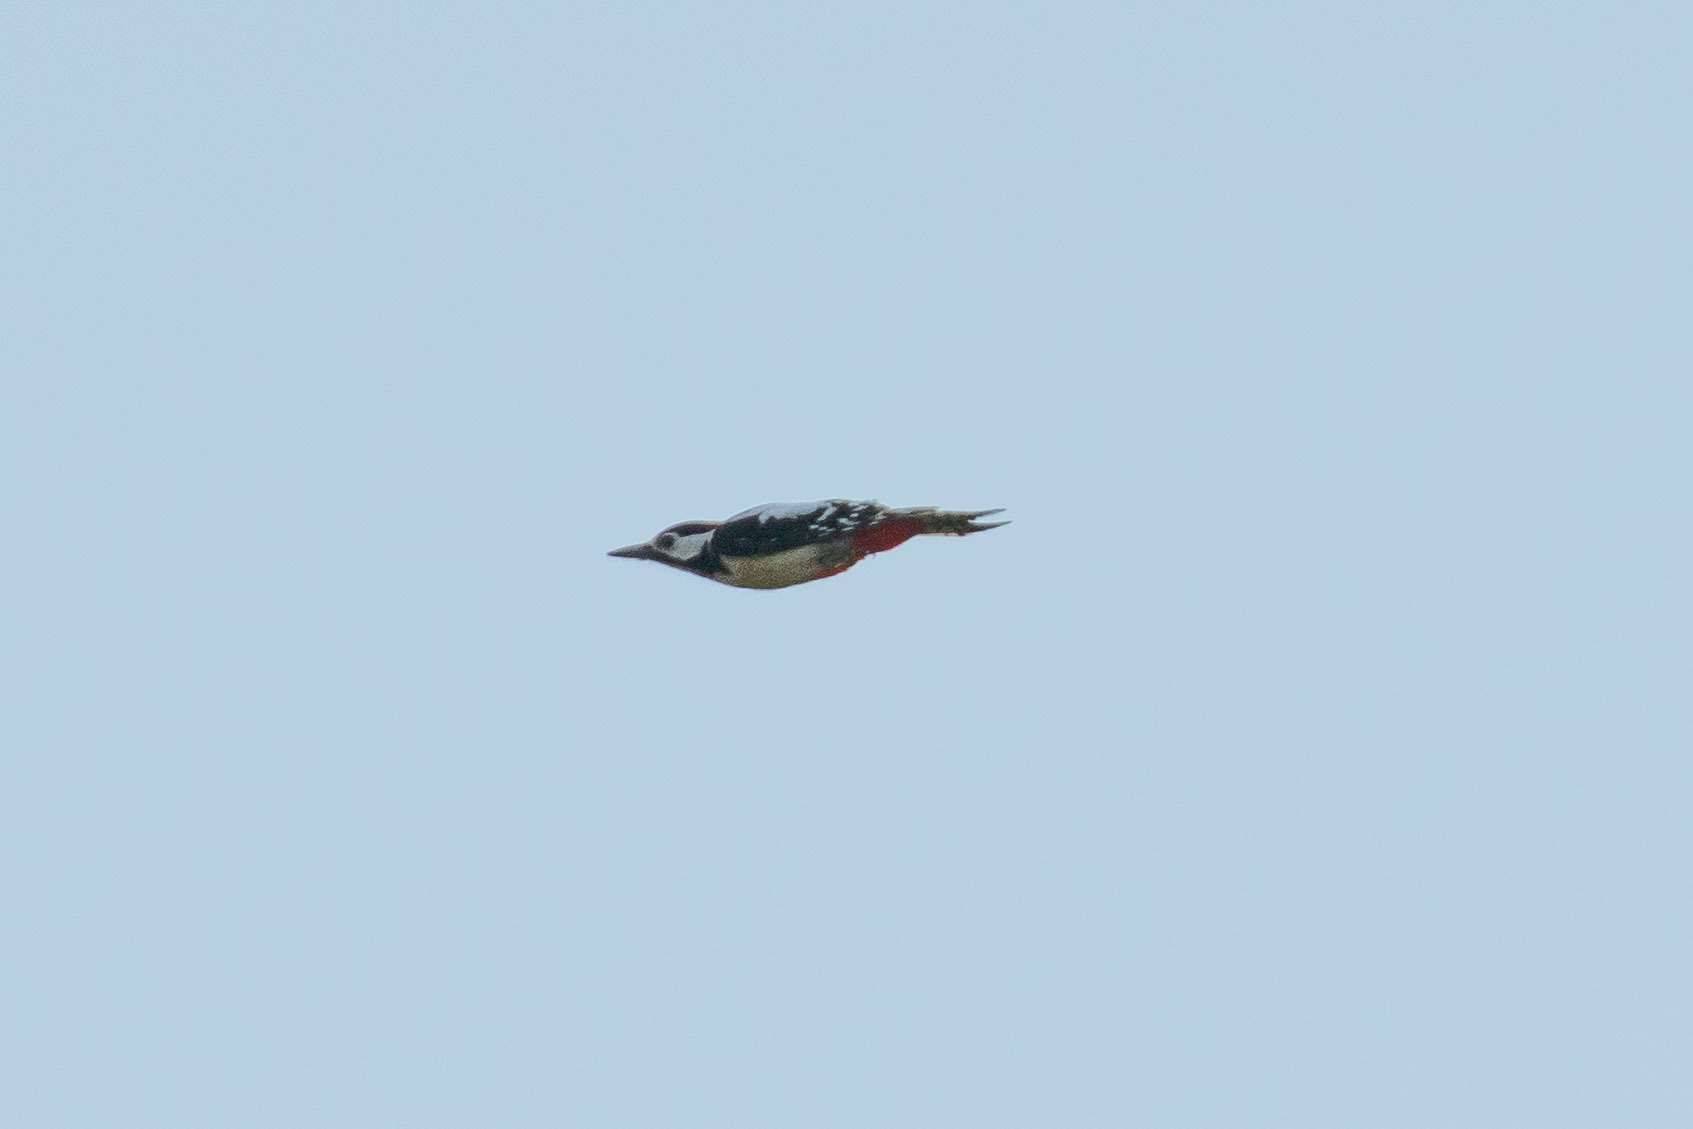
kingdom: Animalia
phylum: Chordata
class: Aves
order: Piciformes
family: Picidae
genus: Dendrocopos
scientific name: Dendrocopos major
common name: Great spotted woodpecker
